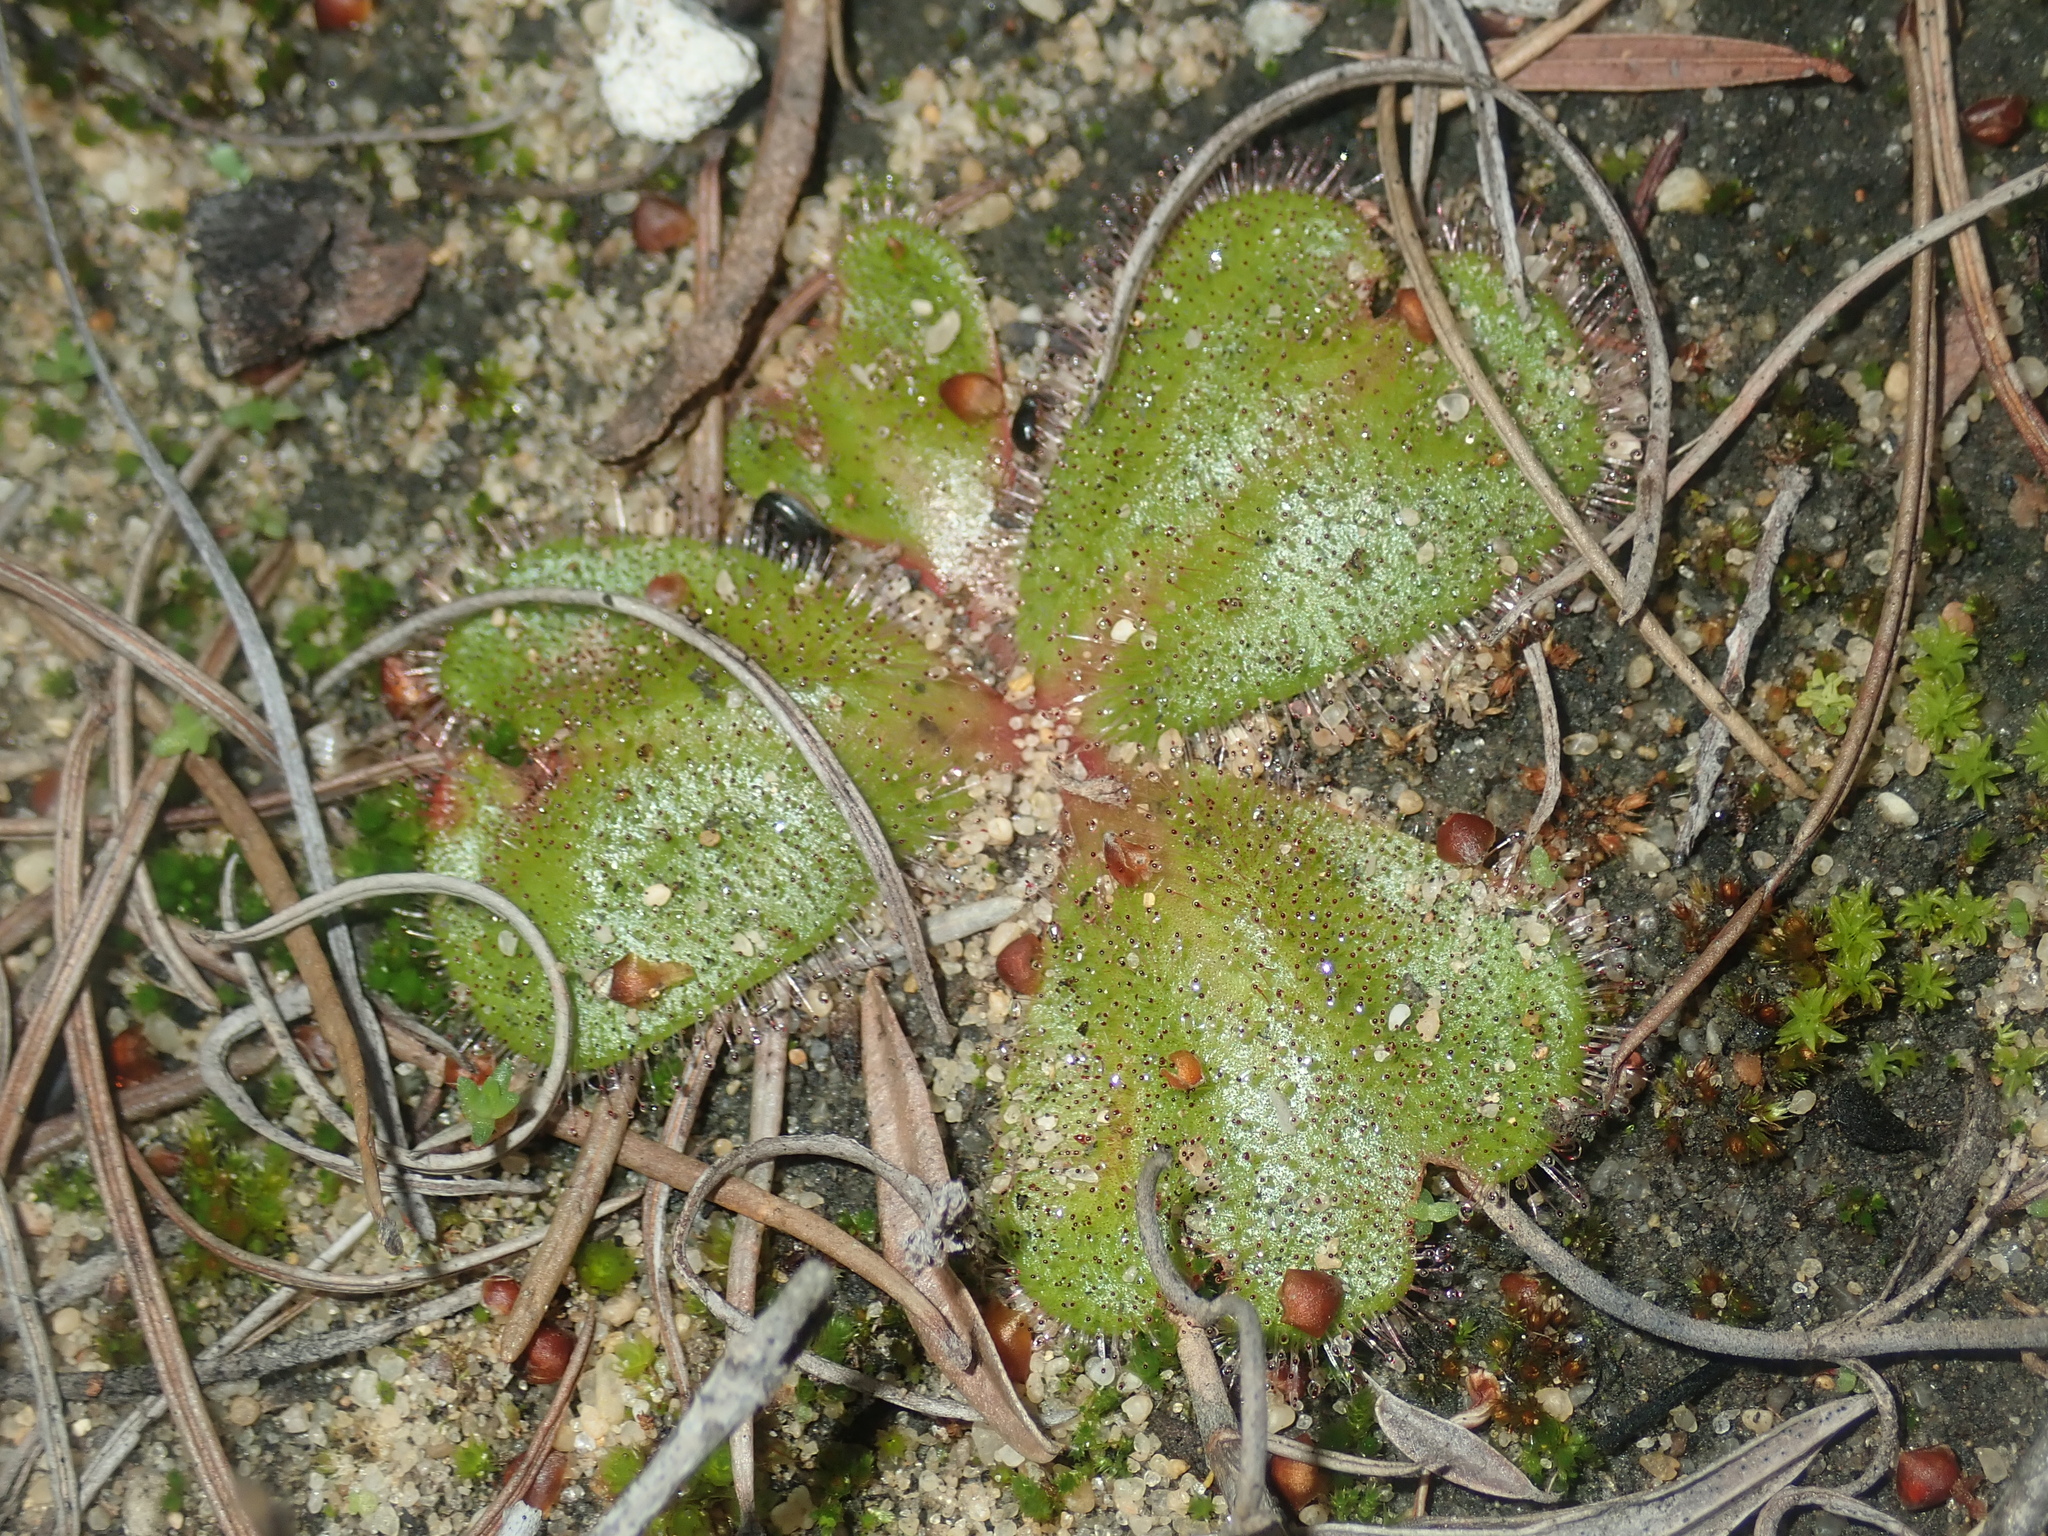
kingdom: Plantae
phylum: Tracheophyta
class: Magnoliopsida
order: Caryophyllales
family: Droseraceae
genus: Drosera
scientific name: Drosera erythrorhiza
